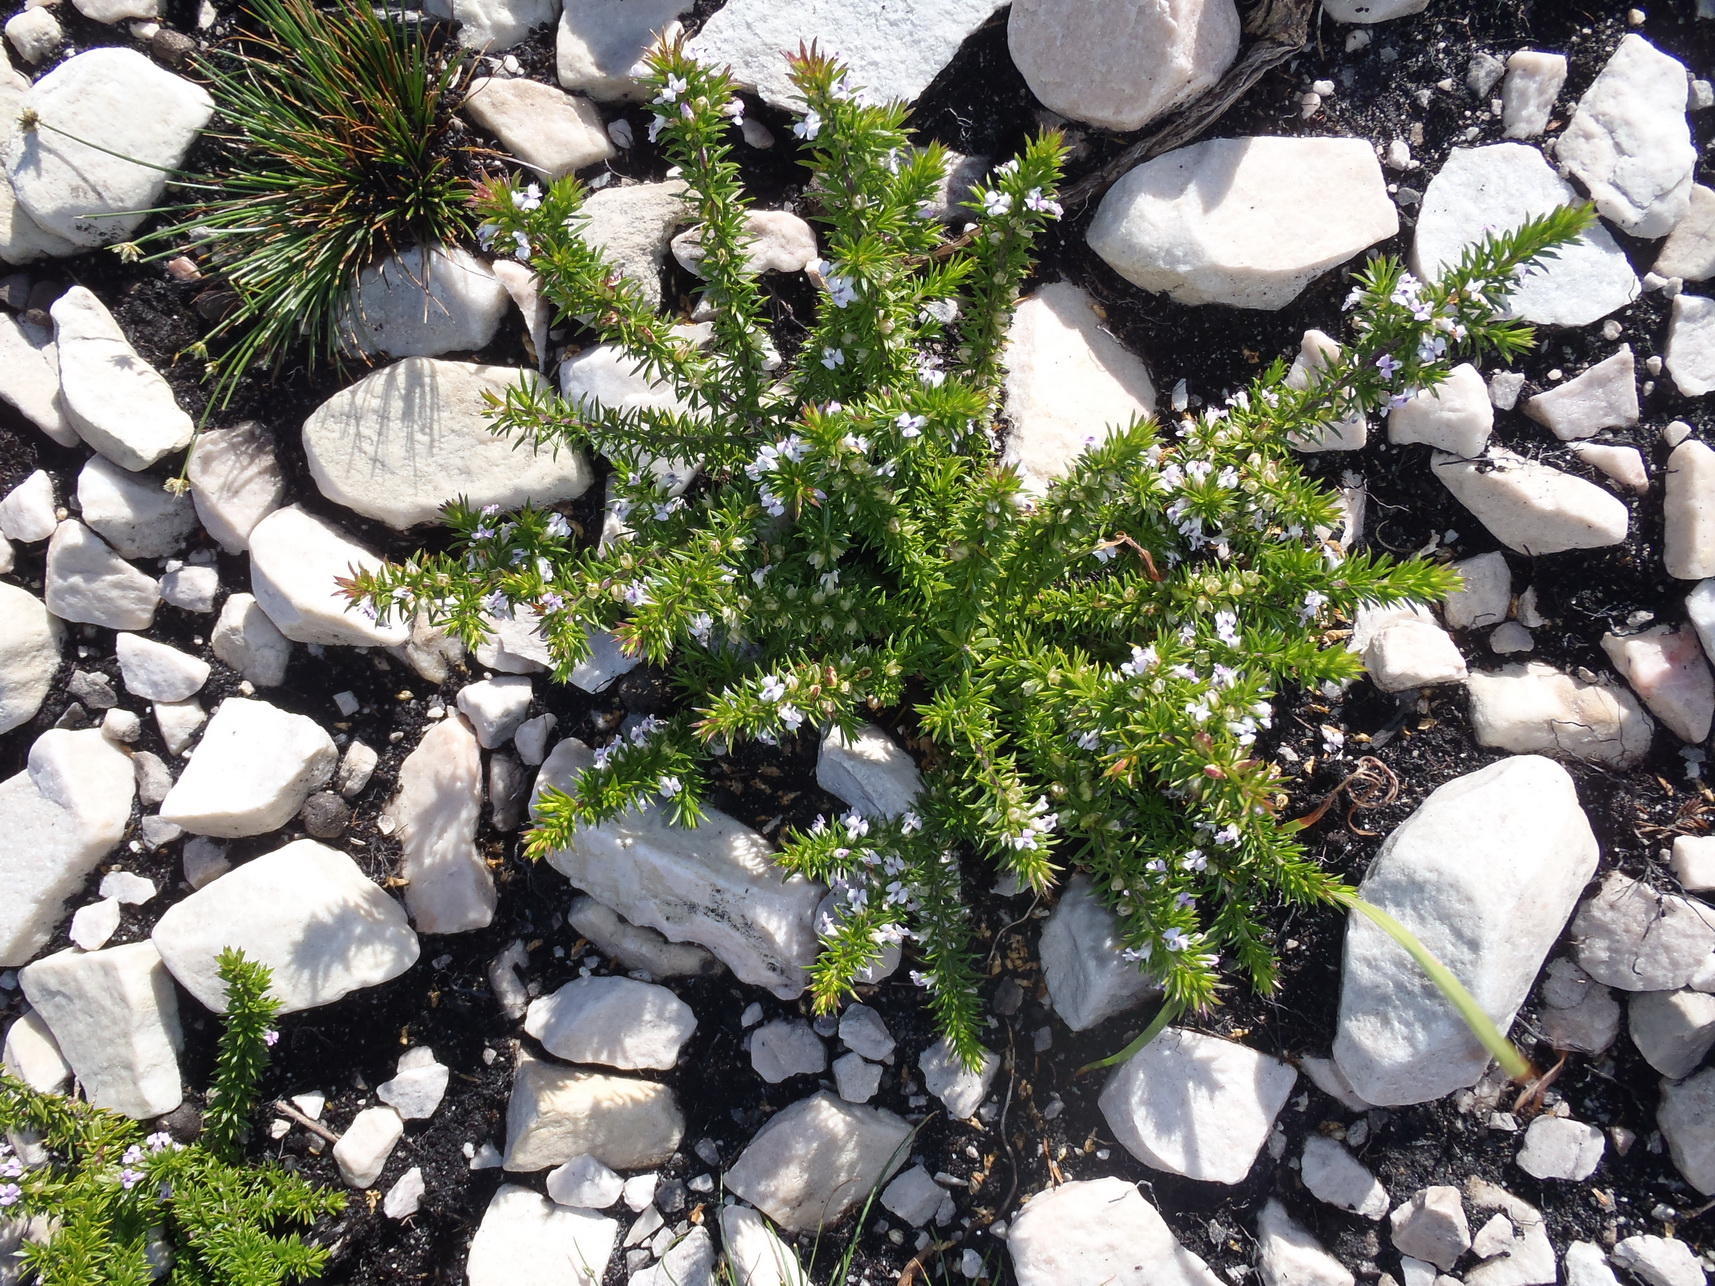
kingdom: Plantae
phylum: Tracheophyta
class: Magnoliopsida
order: Fabales
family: Polygalaceae
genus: Muraltia
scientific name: Muraltia ericifolia
